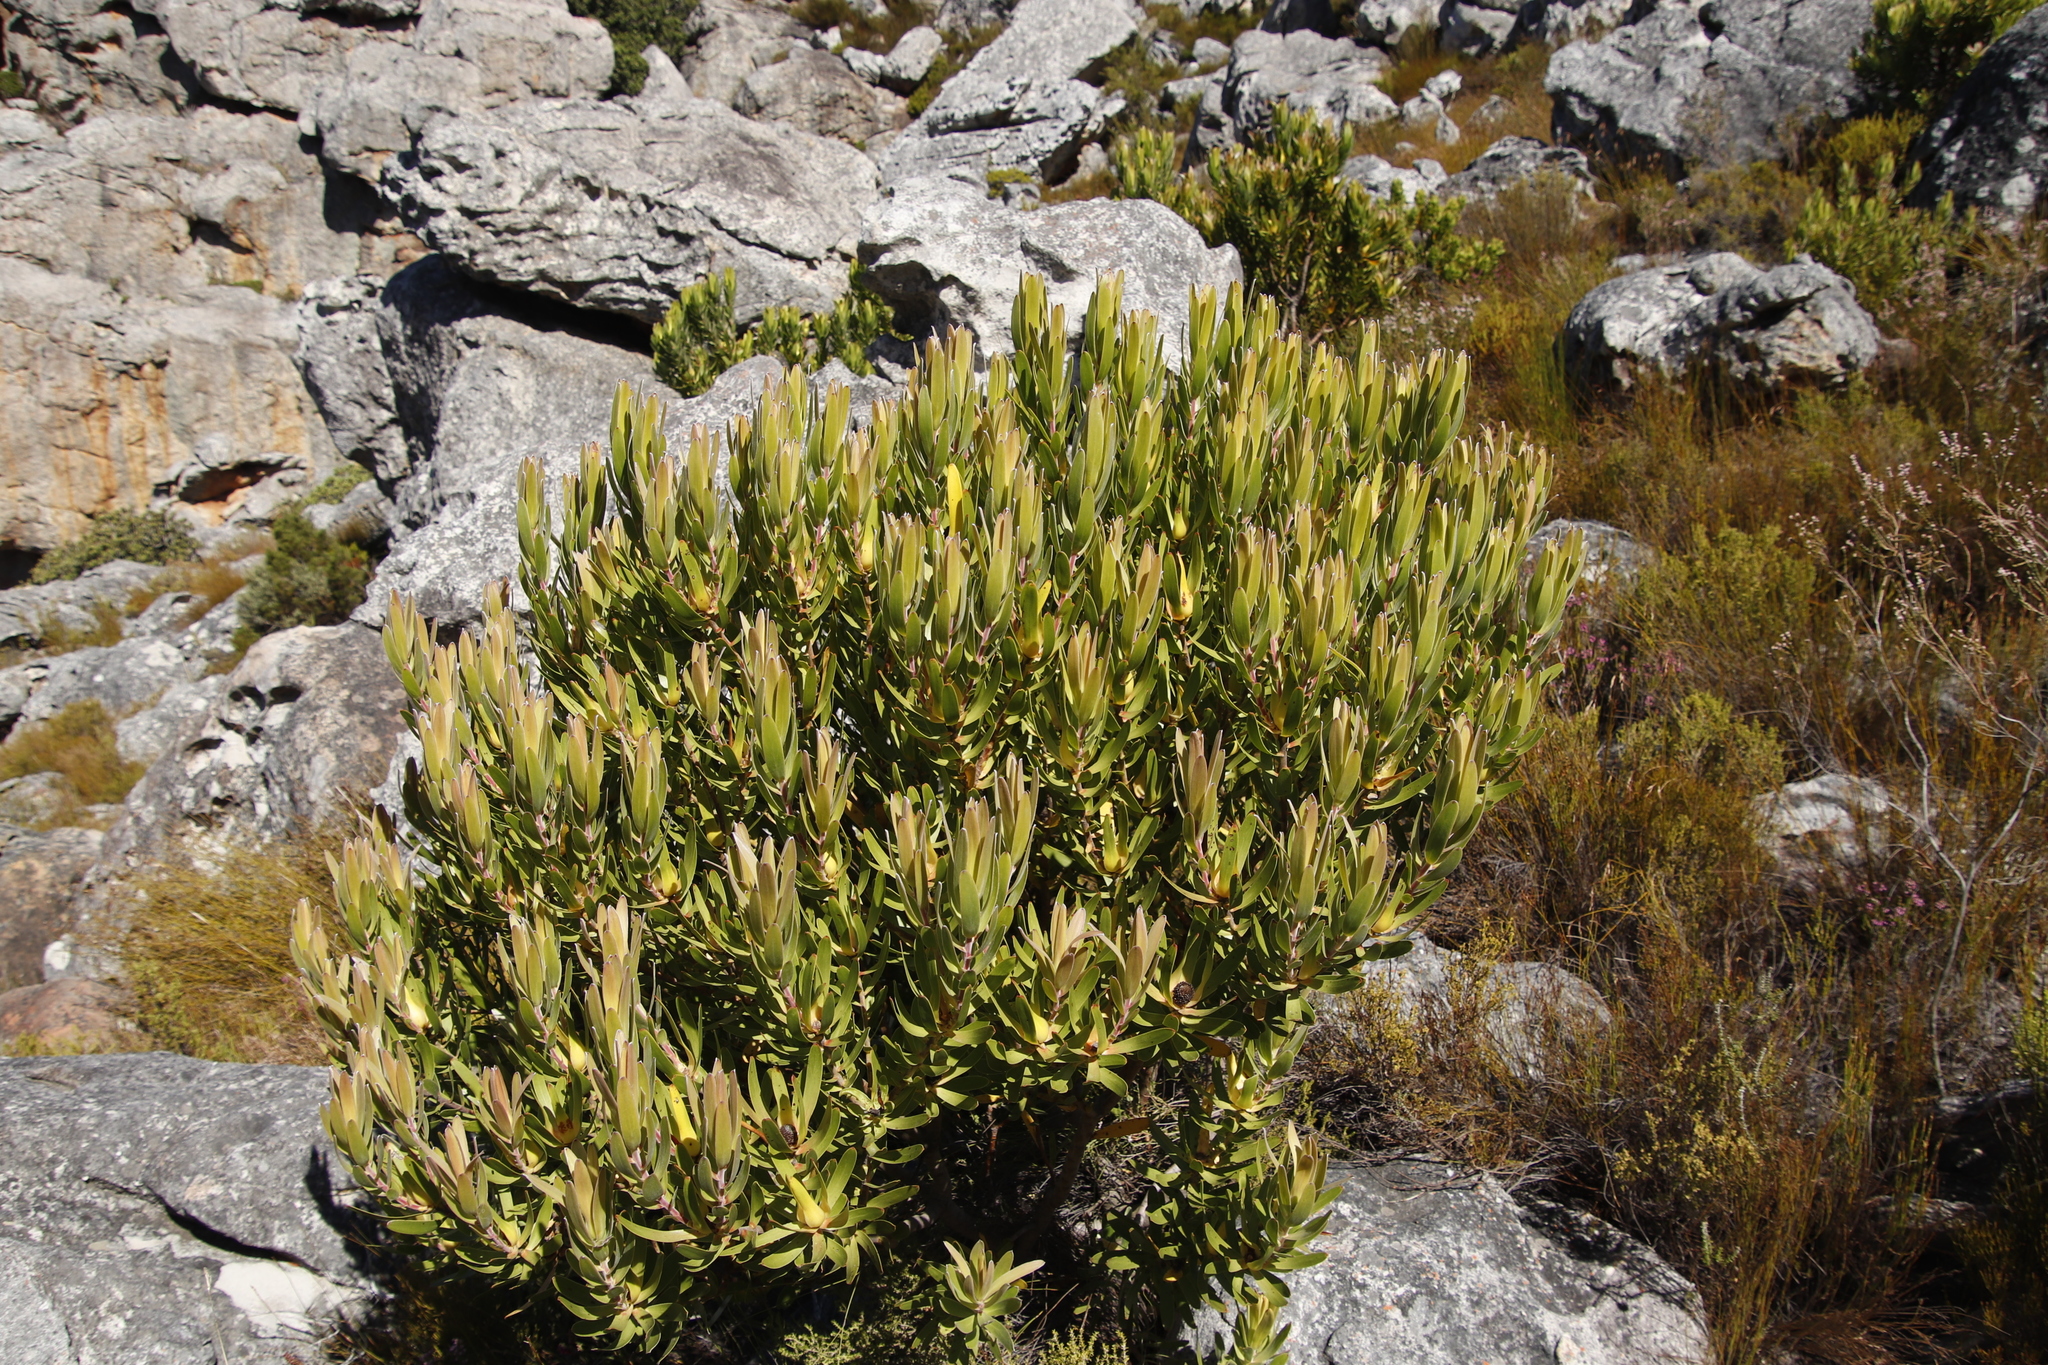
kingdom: Plantae
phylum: Tracheophyta
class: Magnoliopsida
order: Proteales
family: Proteaceae
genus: Leucadendron
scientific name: Leucadendron laureolum
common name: Golden sunshinebush
